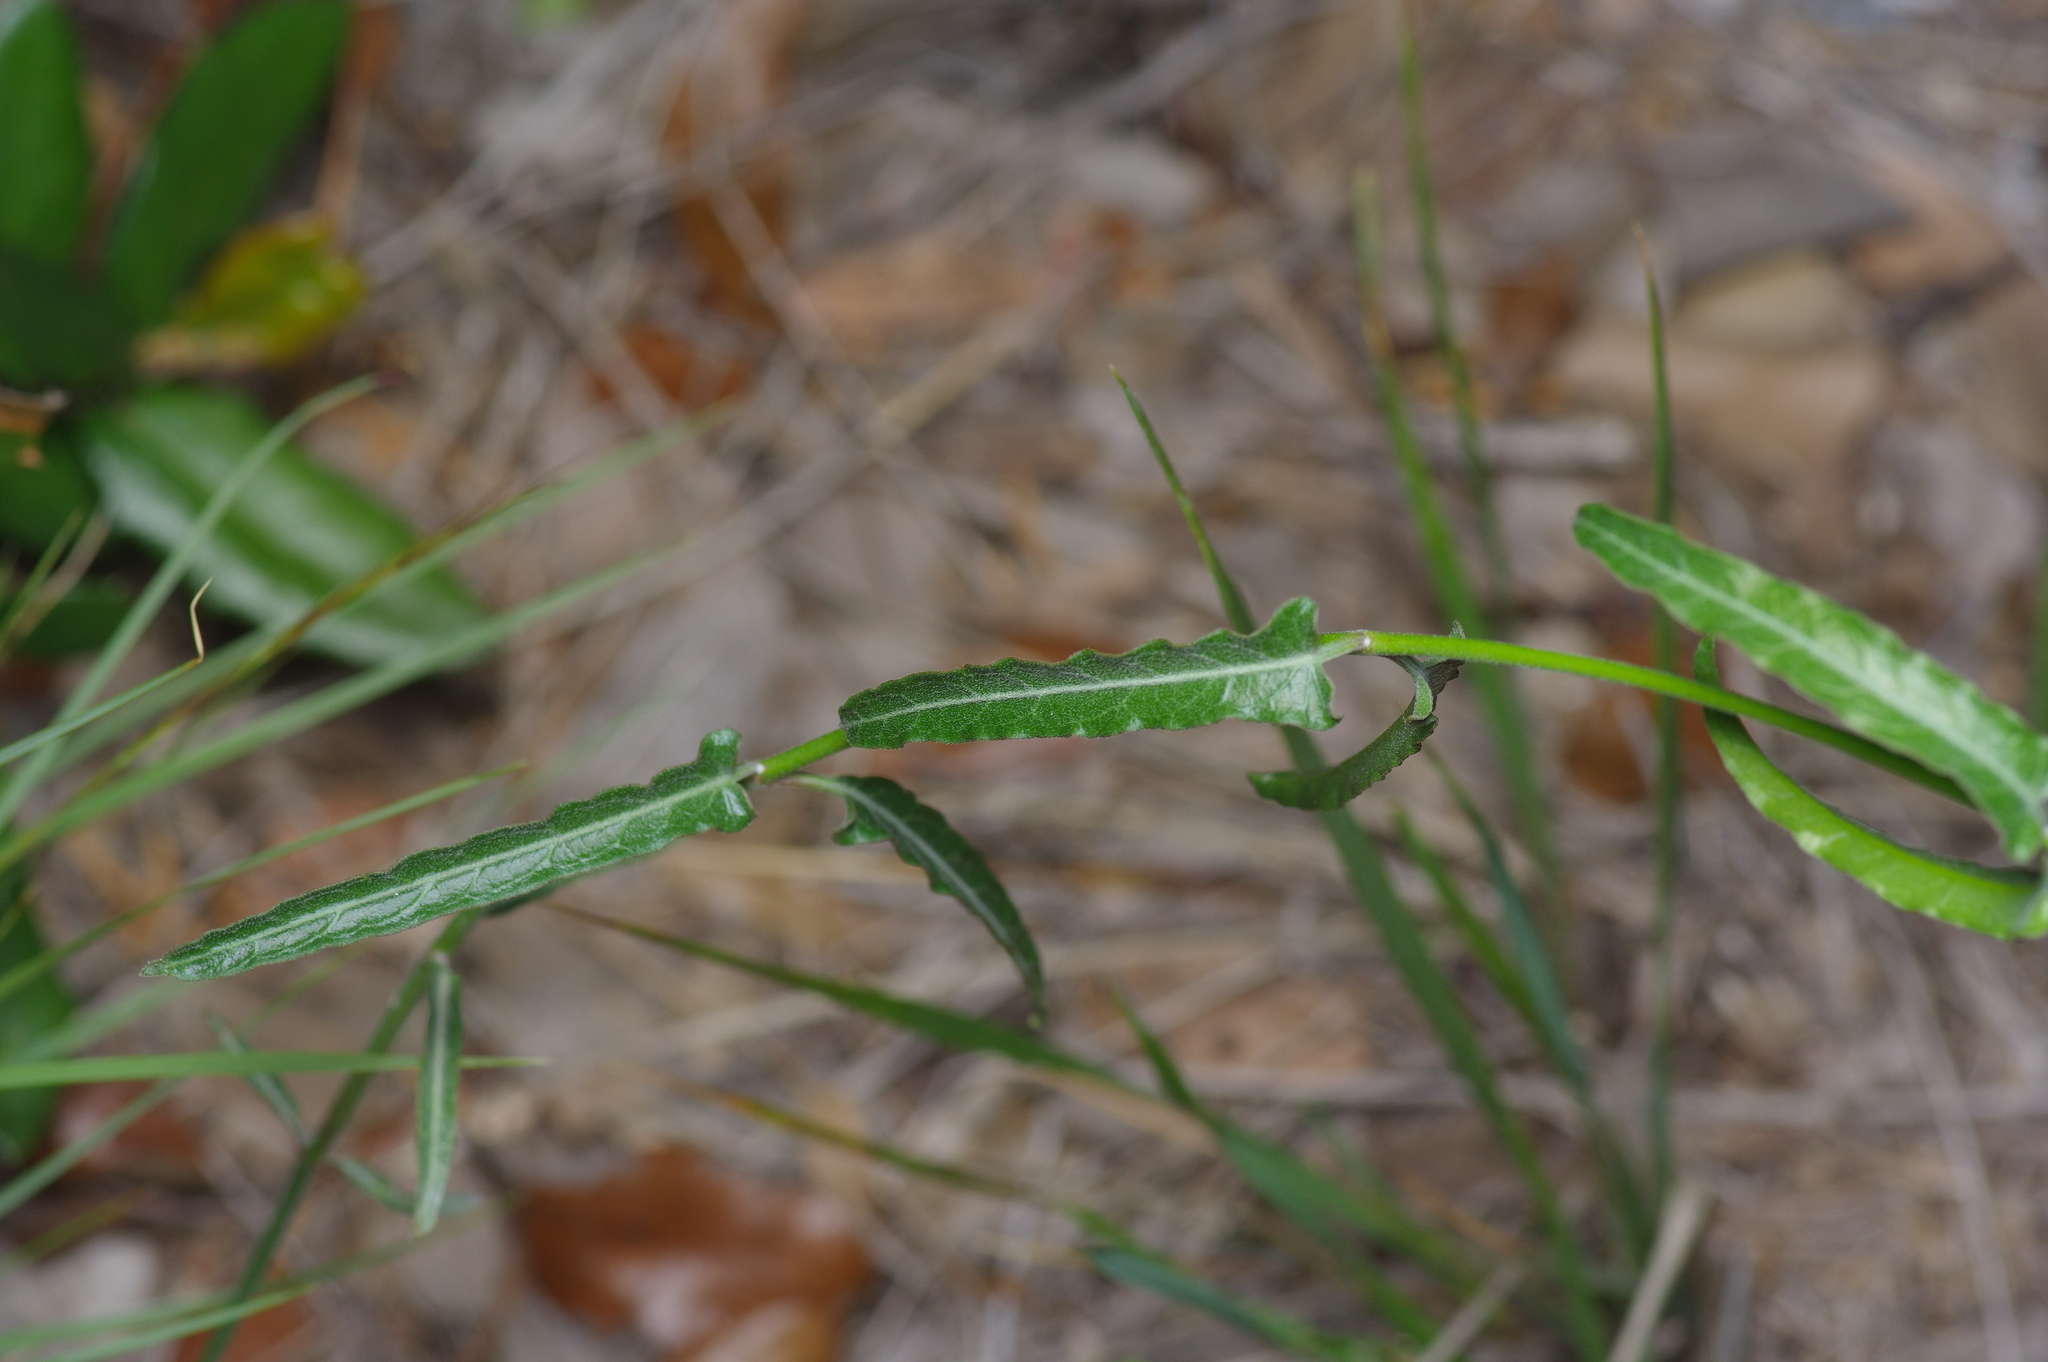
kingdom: Plantae
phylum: Tracheophyta
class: Magnoliopsida
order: Gentianales
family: Apocynaceae
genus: Funastrum
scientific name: Funastrum crispum
